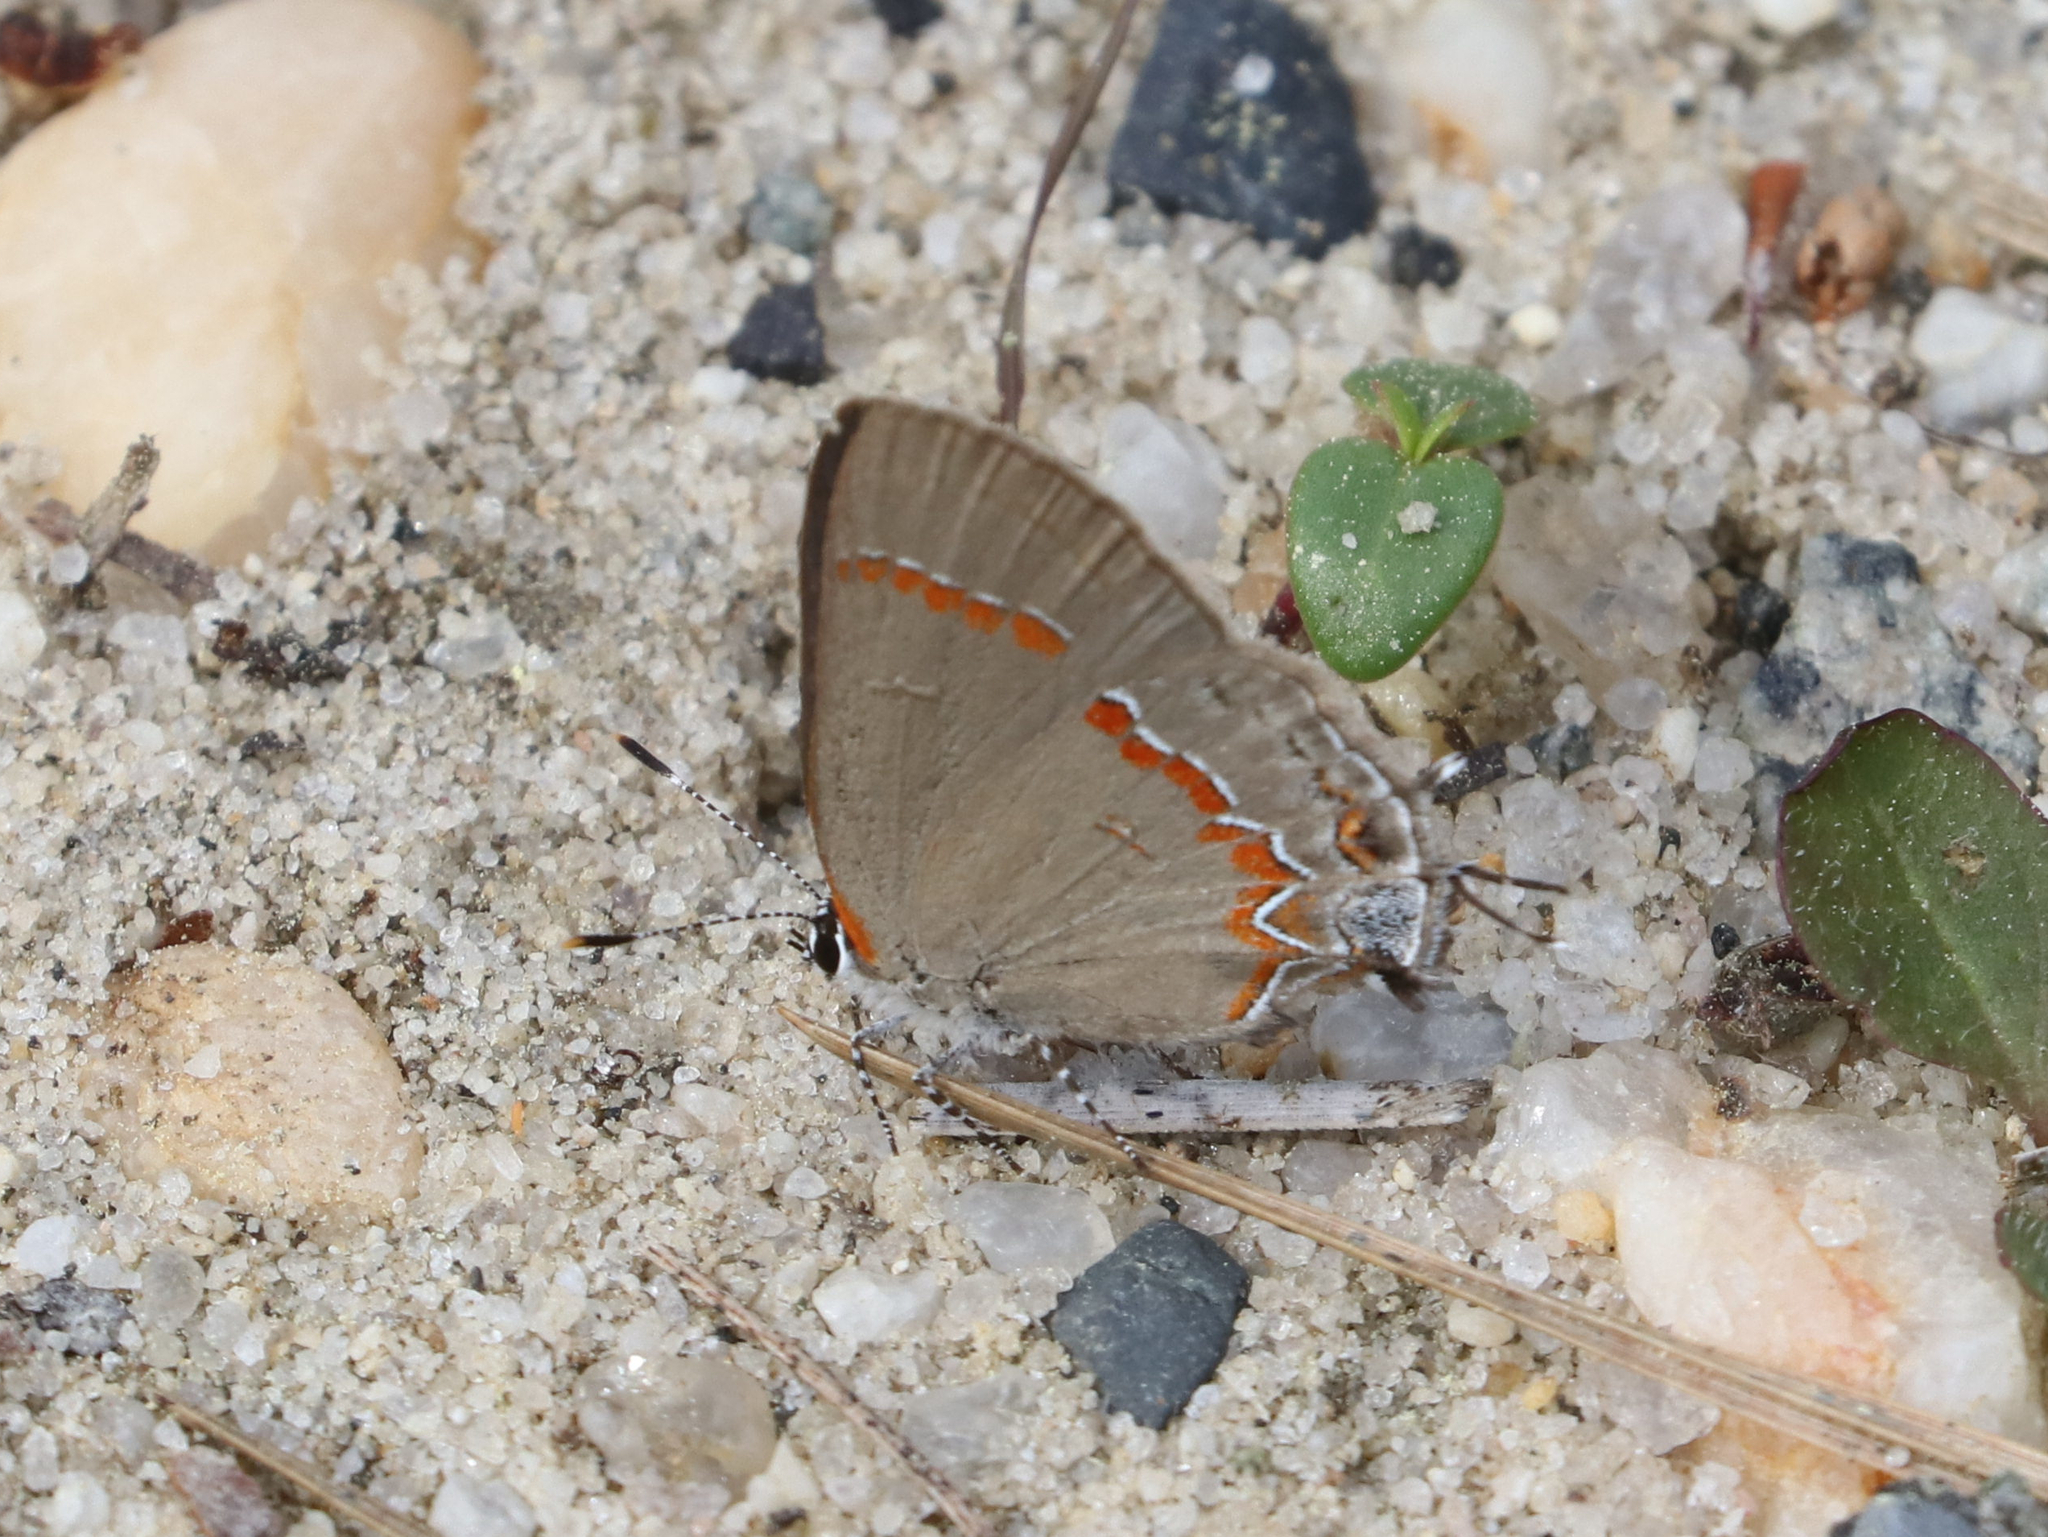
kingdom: Animalia
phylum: Arthropoda
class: Insecta
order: Lepidoptera
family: Lycaenidae
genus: Calycopis
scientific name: Calycopis cecrops
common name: Red-banded hairstreak
